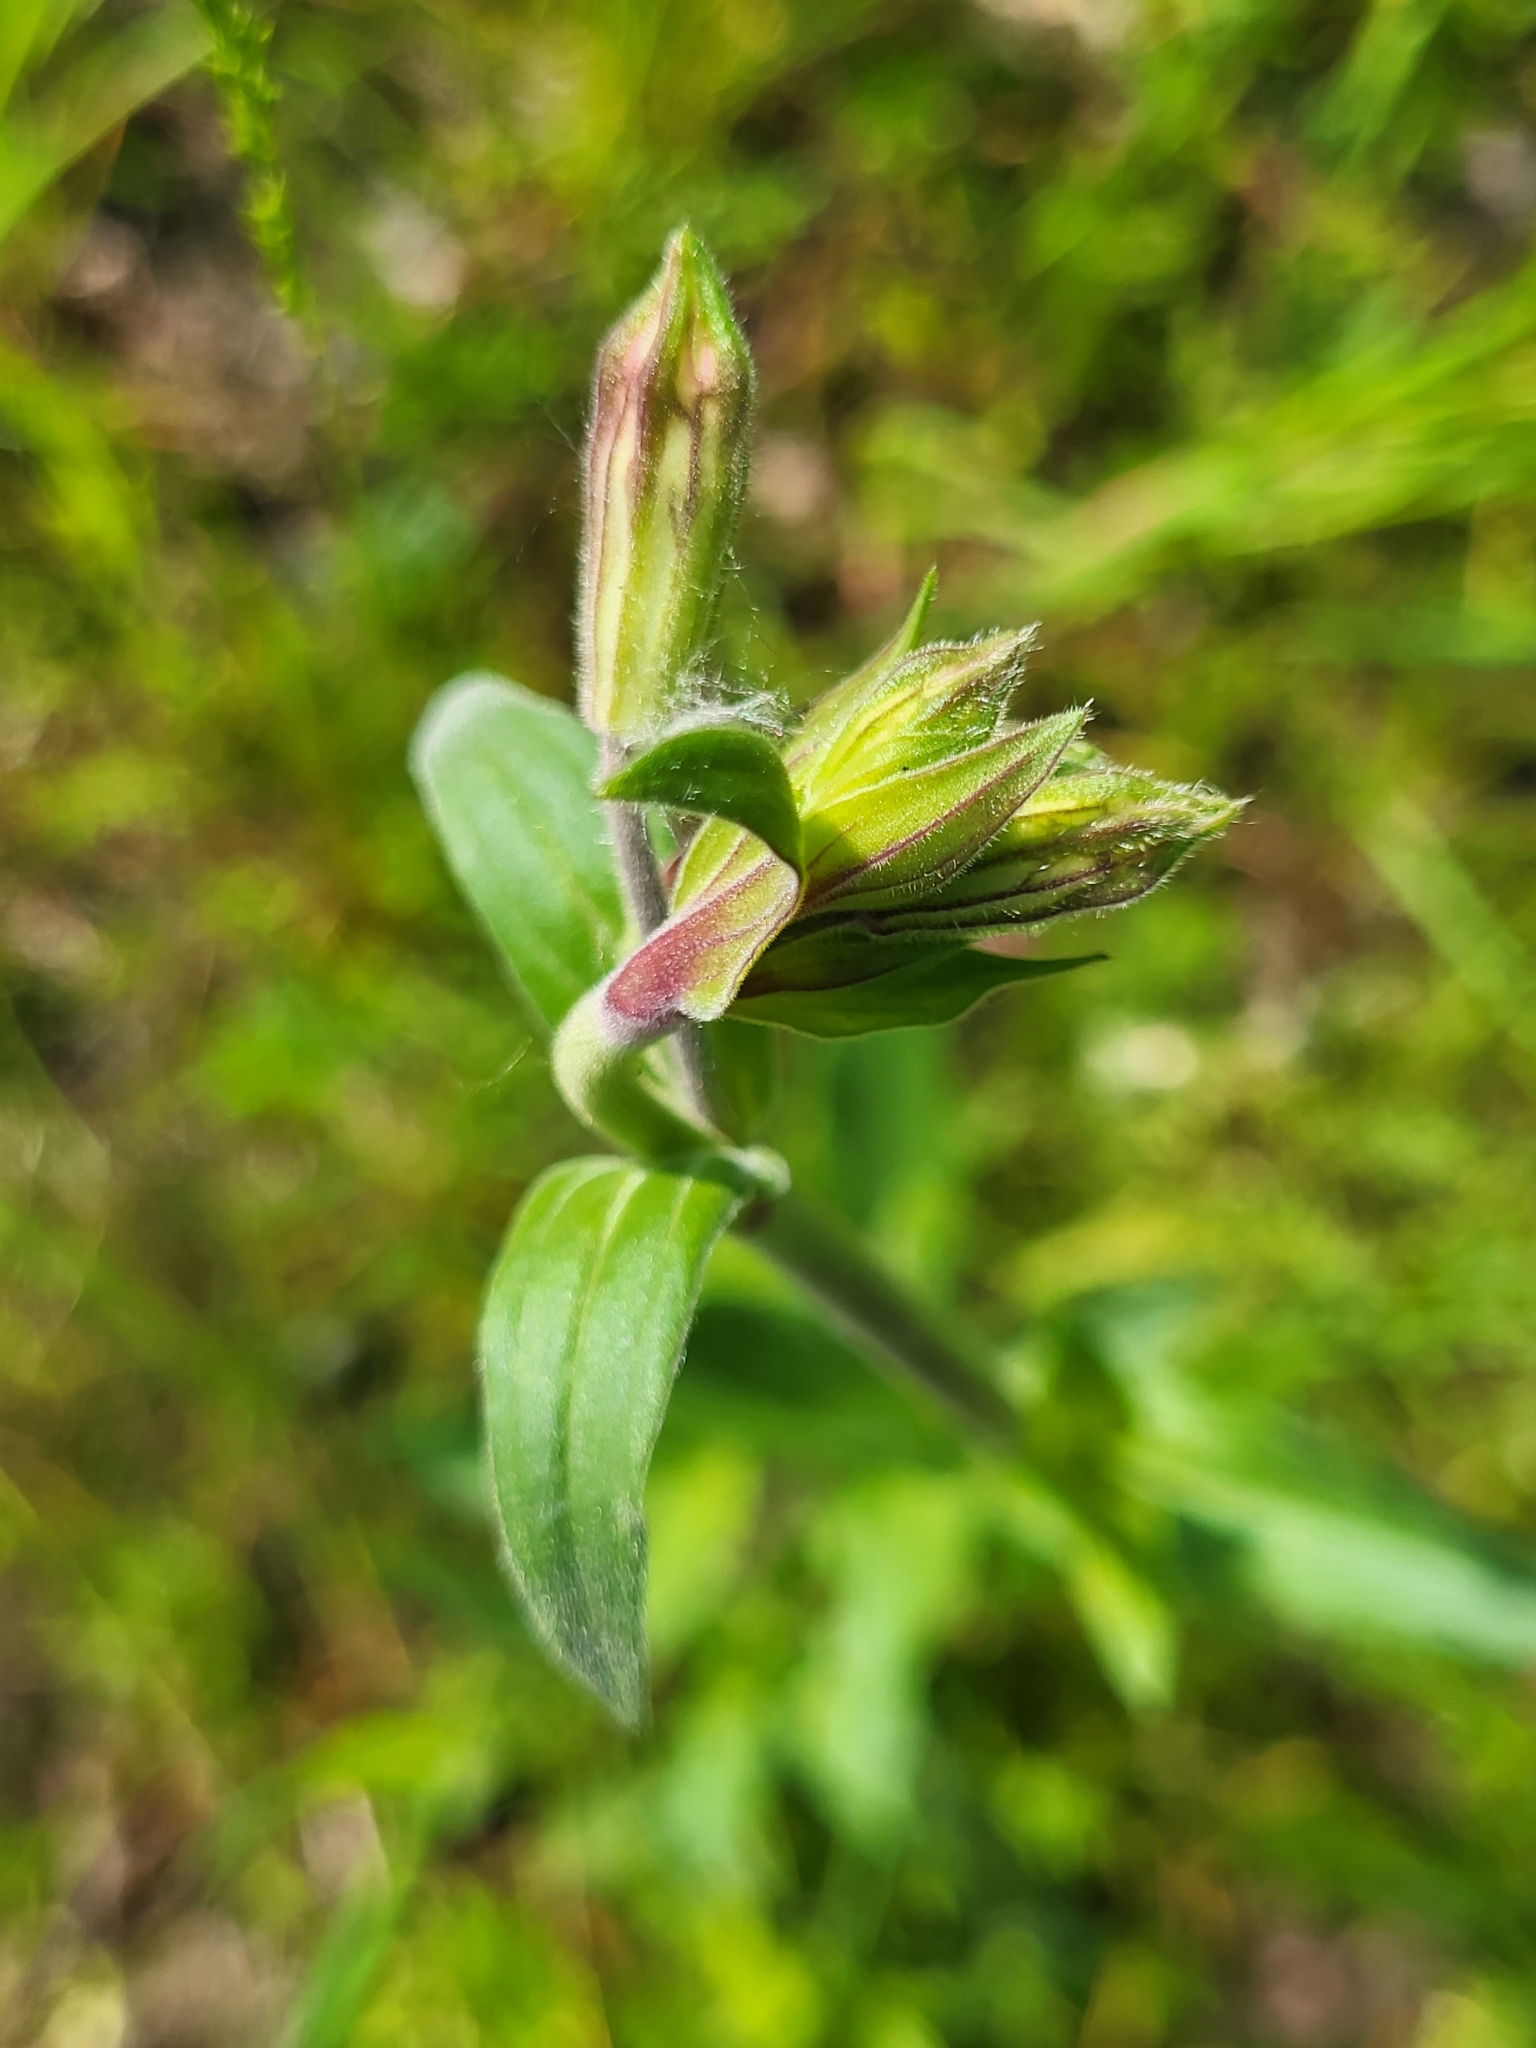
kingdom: Plantae
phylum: Tracheophyta
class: Magnoliopsida
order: Caryophyllales
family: Caryophyllaceae
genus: Silene
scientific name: Silene latifolia
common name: White campion
